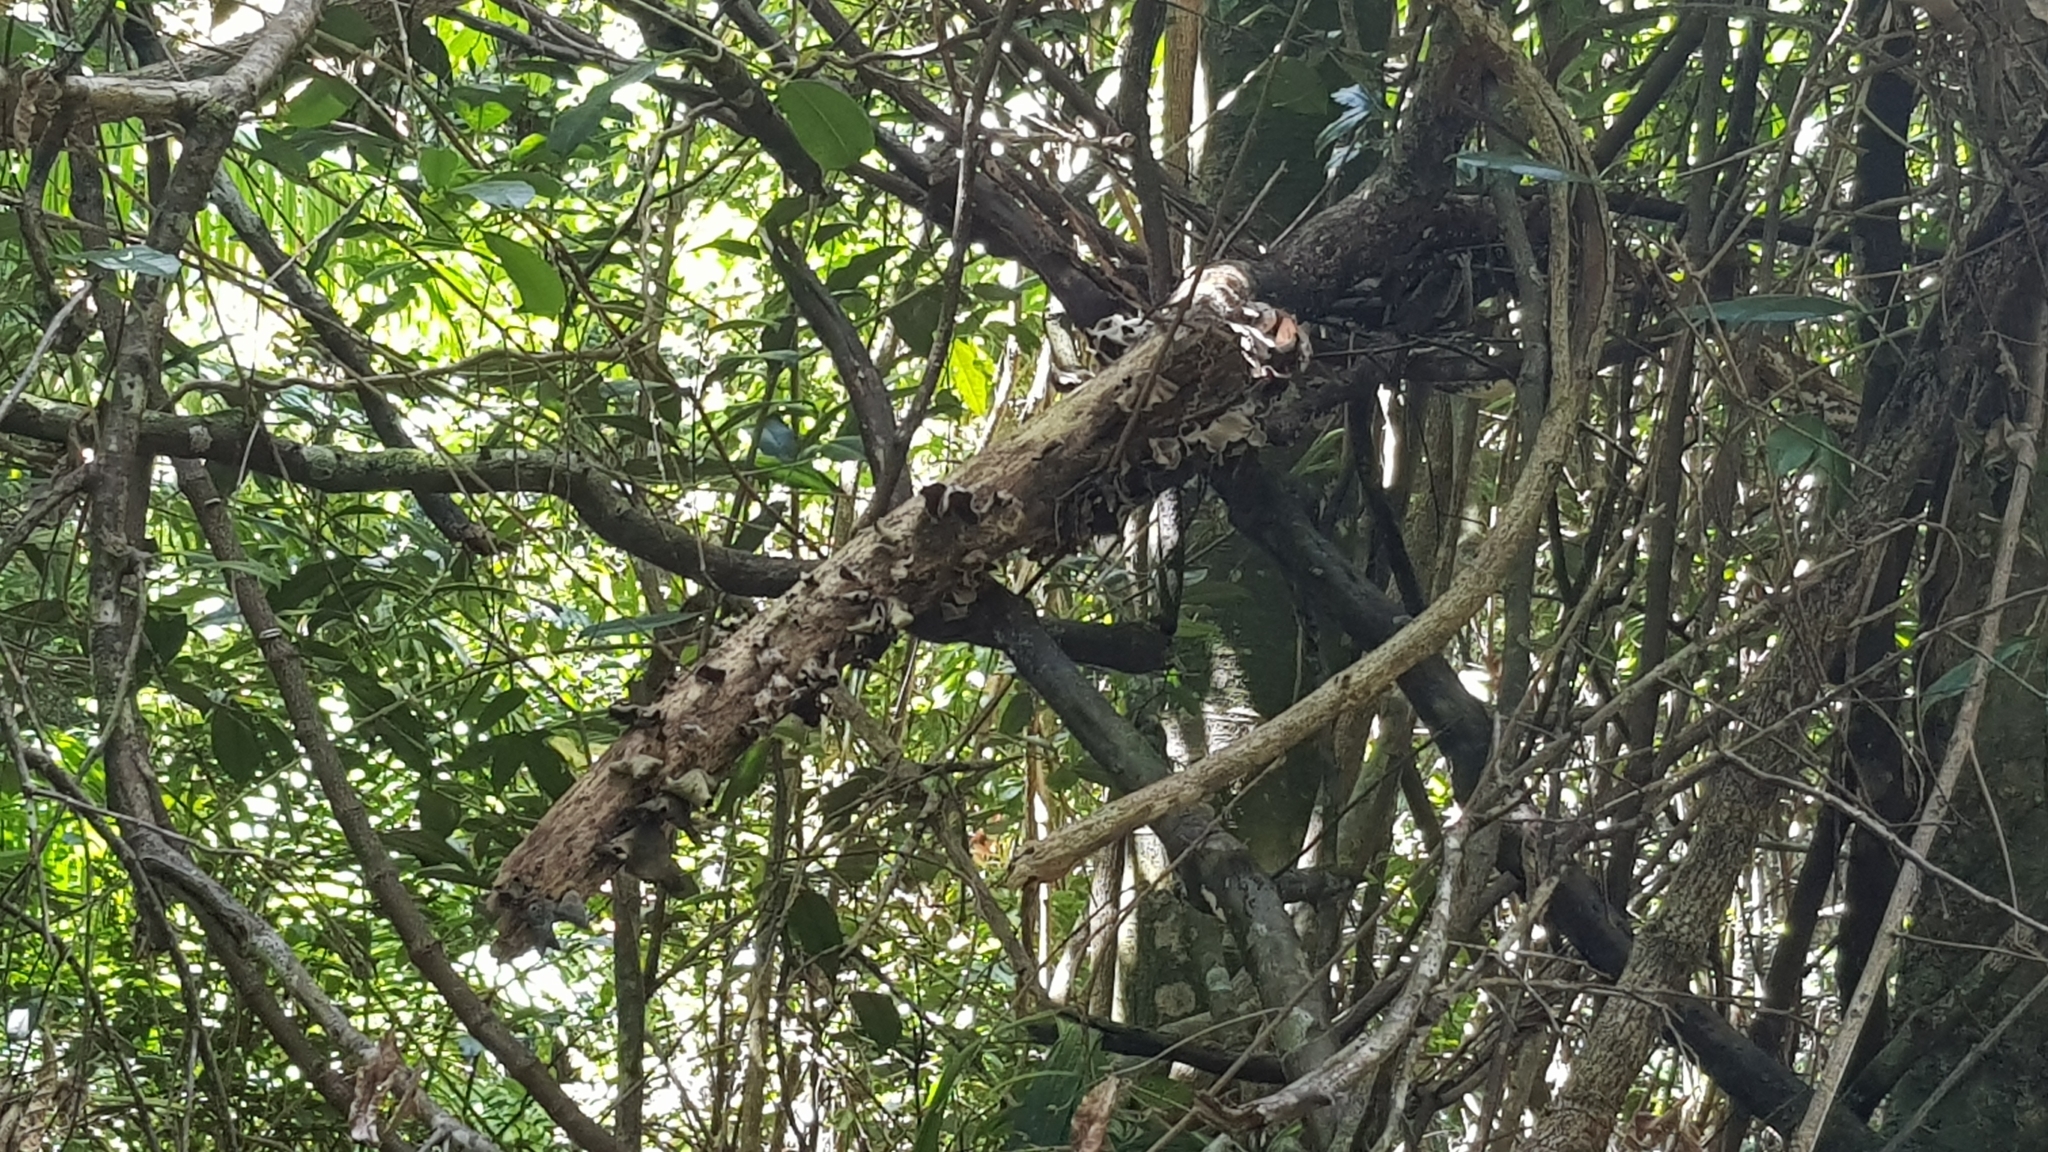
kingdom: Fungi
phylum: Basidiomycota
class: Agaricomycetes
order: Auriculariales
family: Auriculariaceae
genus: Auricularia
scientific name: Auricularia cornea
